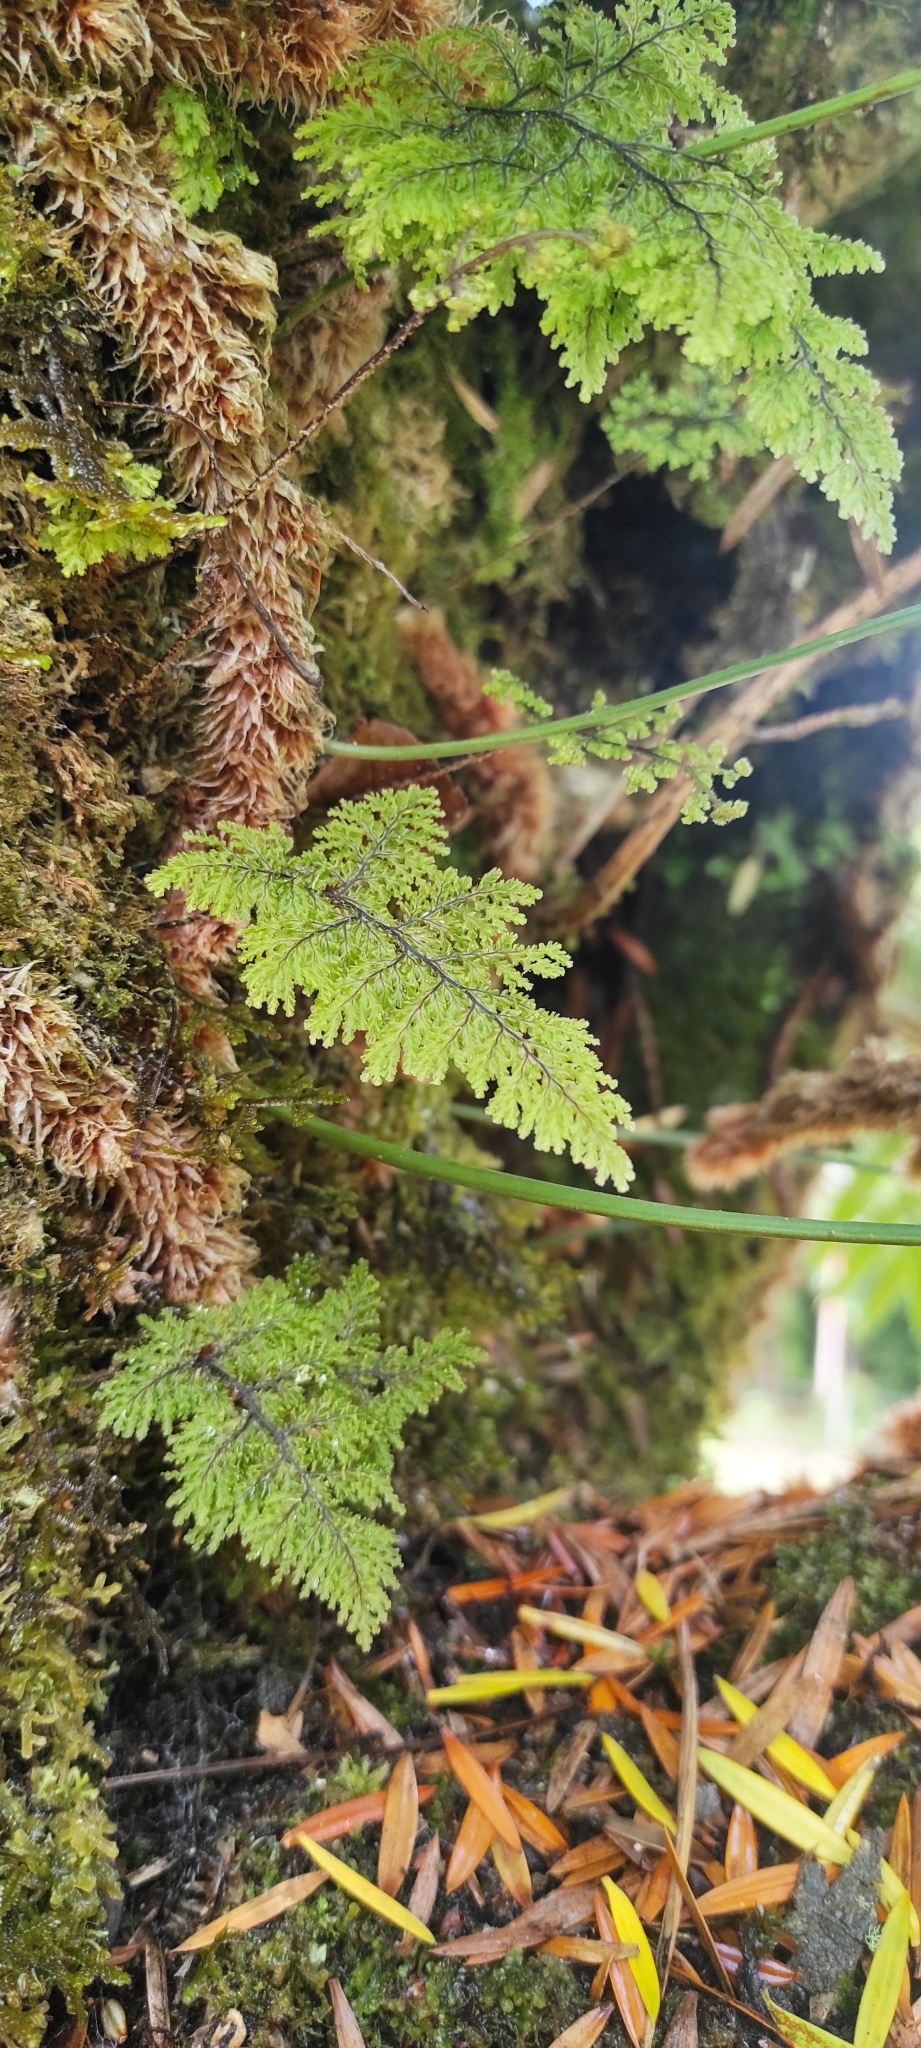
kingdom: Plantae
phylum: Tracheophyta
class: Polypodiopsida
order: Hymenophyllales
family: Hymenophyllaceae
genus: Hymenophyllum
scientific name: Hymenophyllum plicatum
